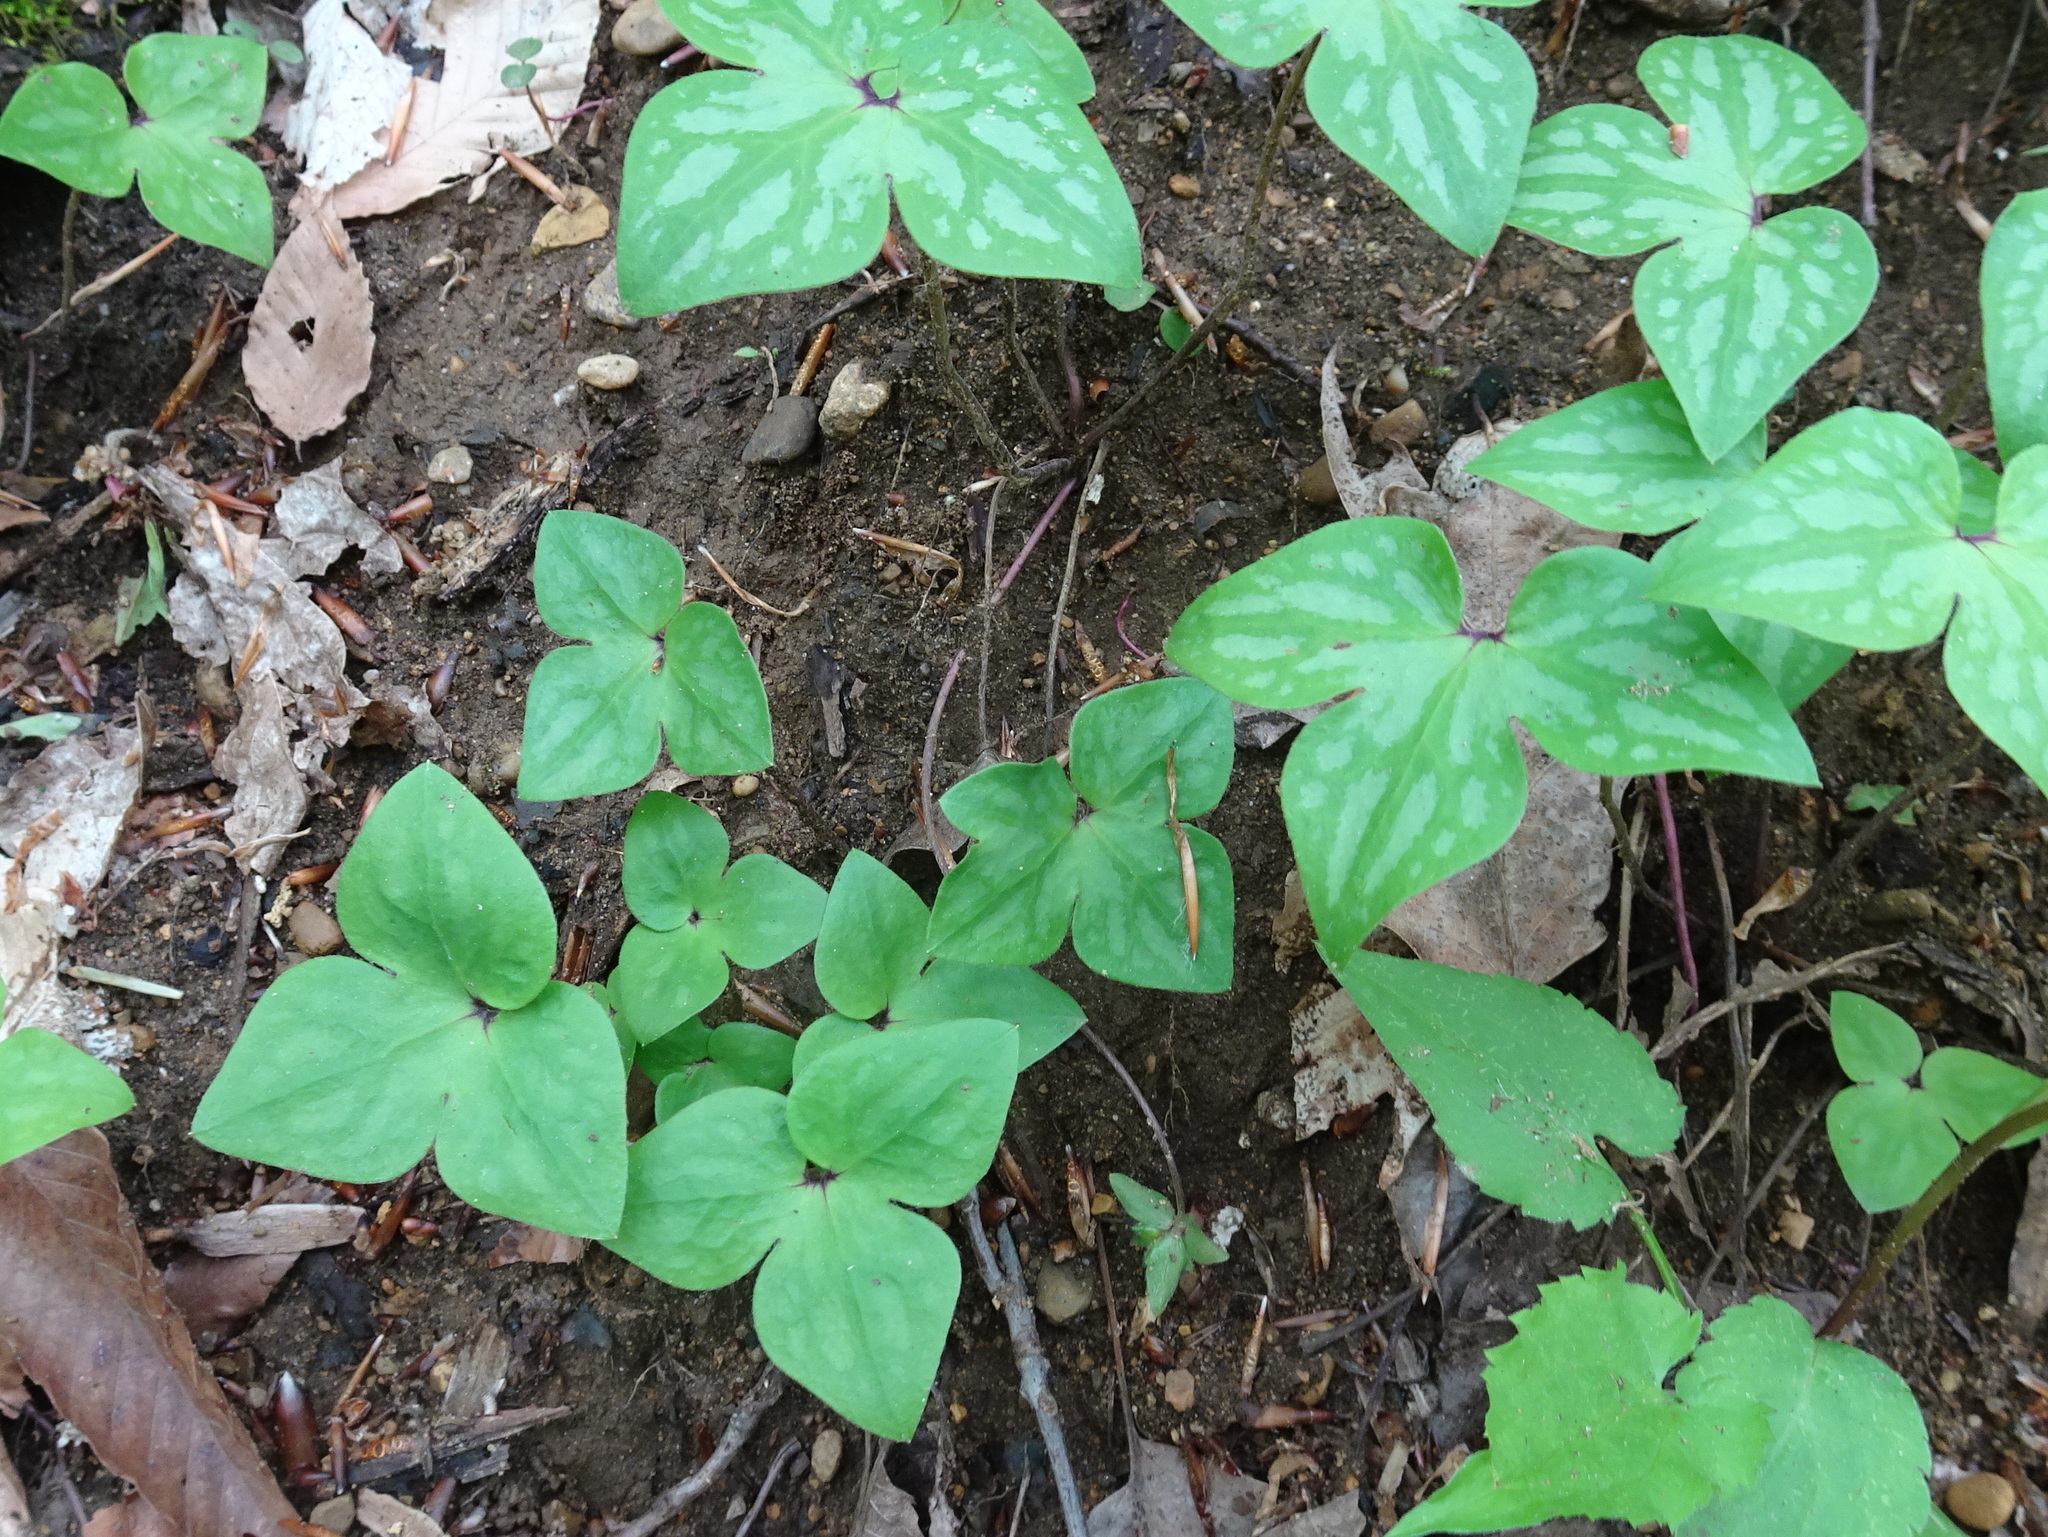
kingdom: Plantae
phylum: Tracheophyta
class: Magnoliopsida
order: Ranunculales
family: Ranunculaceae
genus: Hepatica
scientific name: Hepatica acutiloba
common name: Sharp-lobed hepatica
